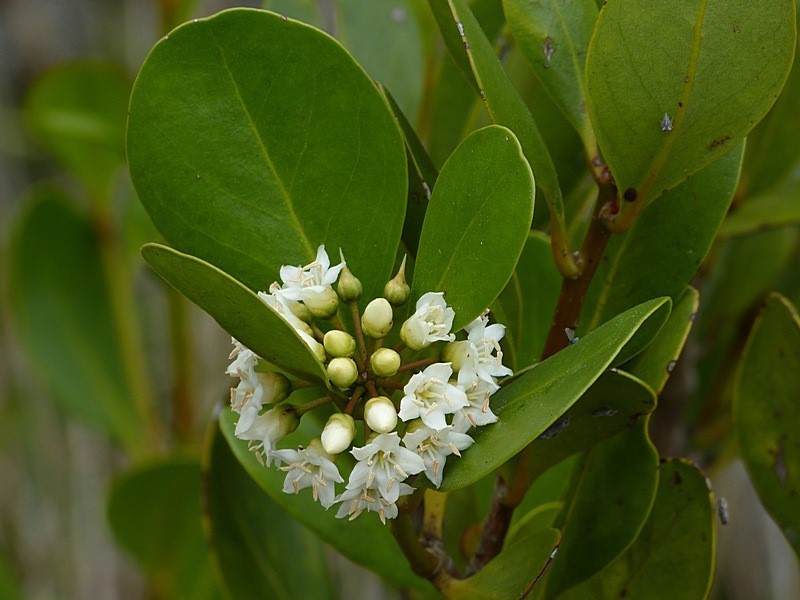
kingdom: Plantae
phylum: Tracheophyta
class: Magnoliopsida
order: Ericales
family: Primulaceae
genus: Aegiceras
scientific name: Aegiceras corniculatum
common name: River mangrove
